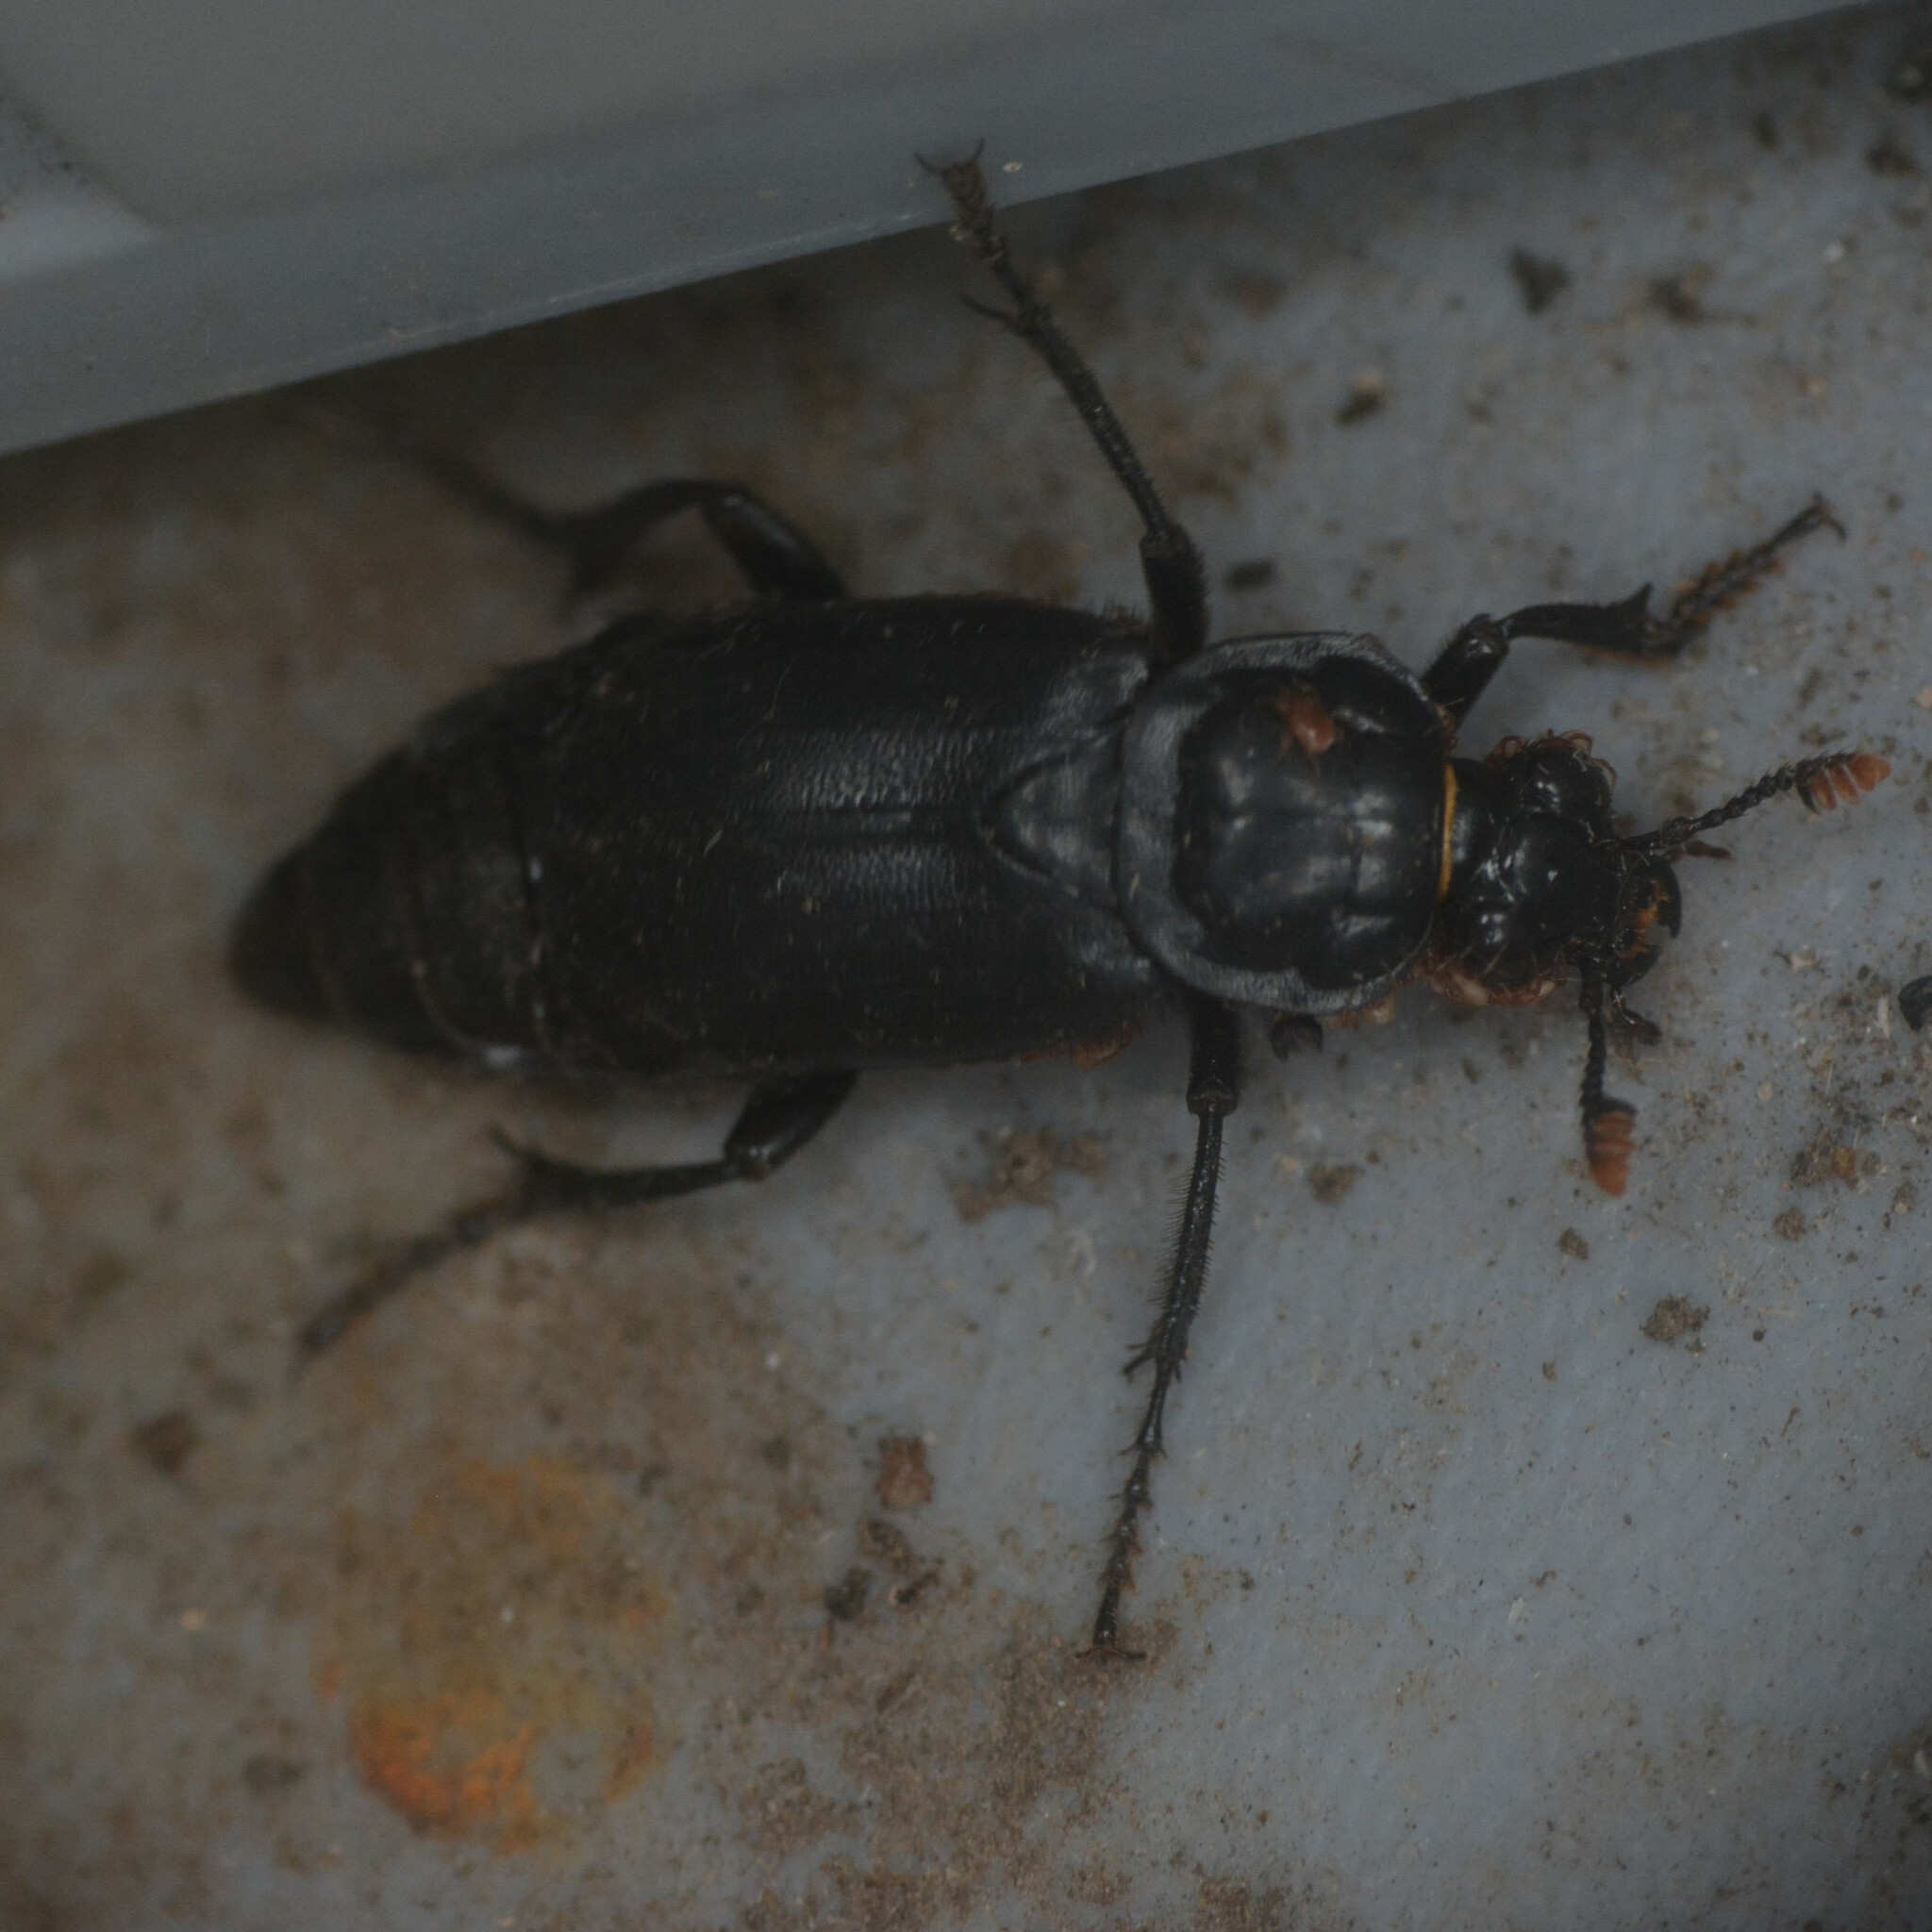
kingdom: Animalia
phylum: Arthropoda
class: Insecta
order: Coleoptera
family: Staphylinidae
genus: Nicrophorus
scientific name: Nicrophorus humator
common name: Black sexton beetle
